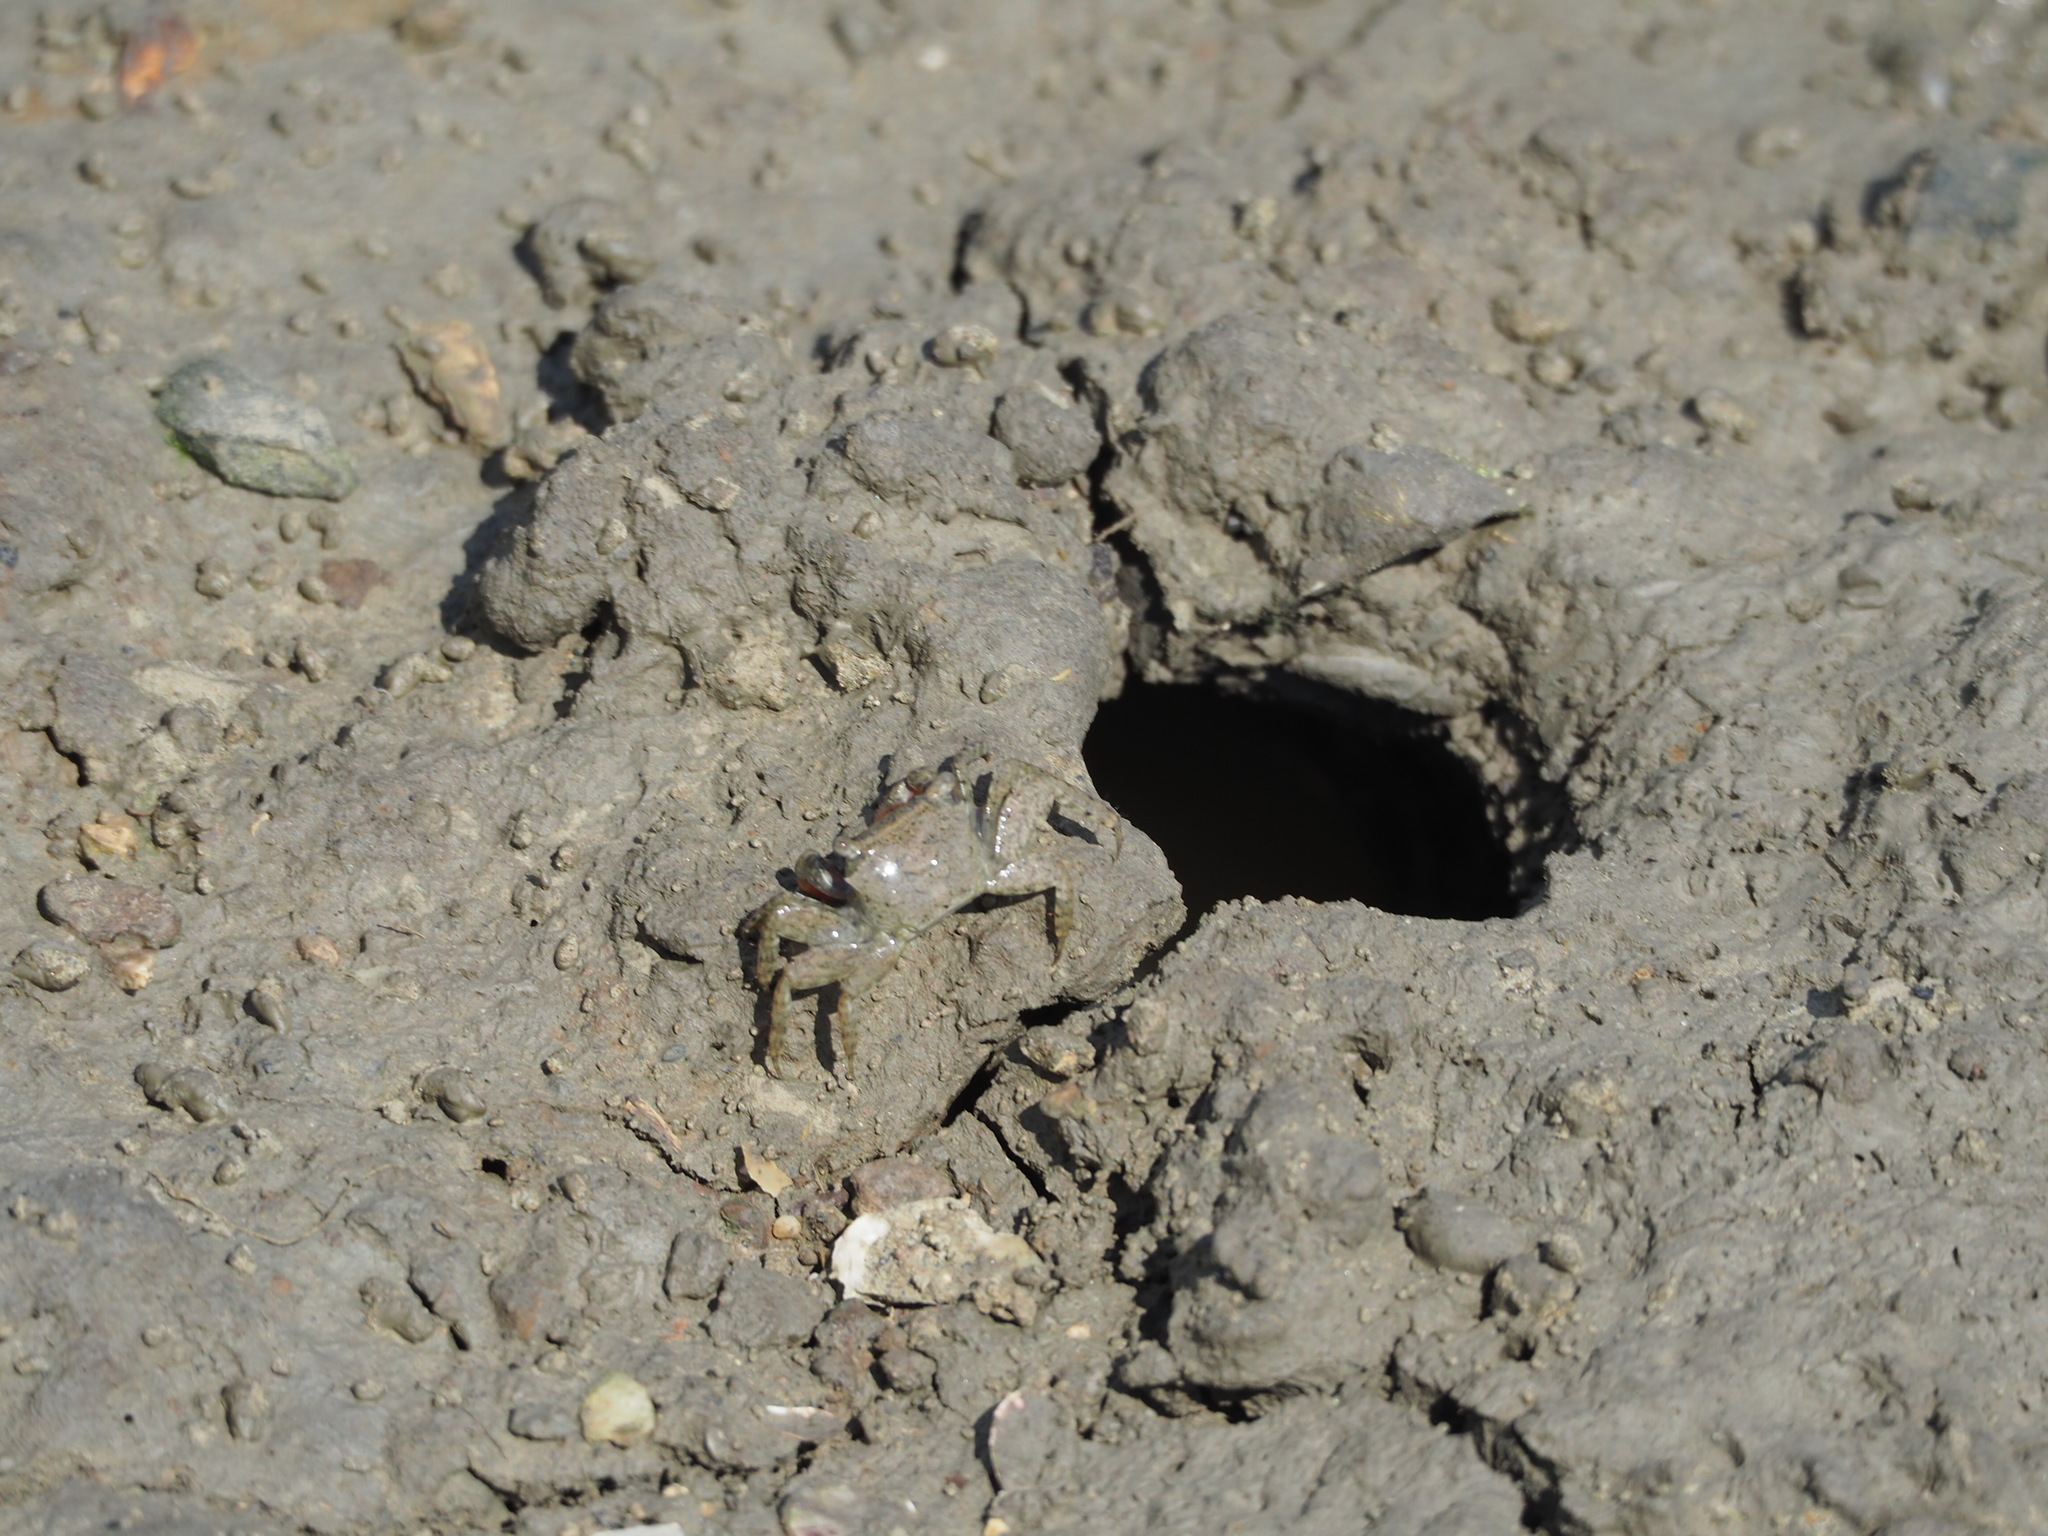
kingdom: Animalia
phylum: Arthropoda
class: Malacostraca
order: Decapoda
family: Sesarmidae
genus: Parasesarma
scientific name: Parasesarma bidens
